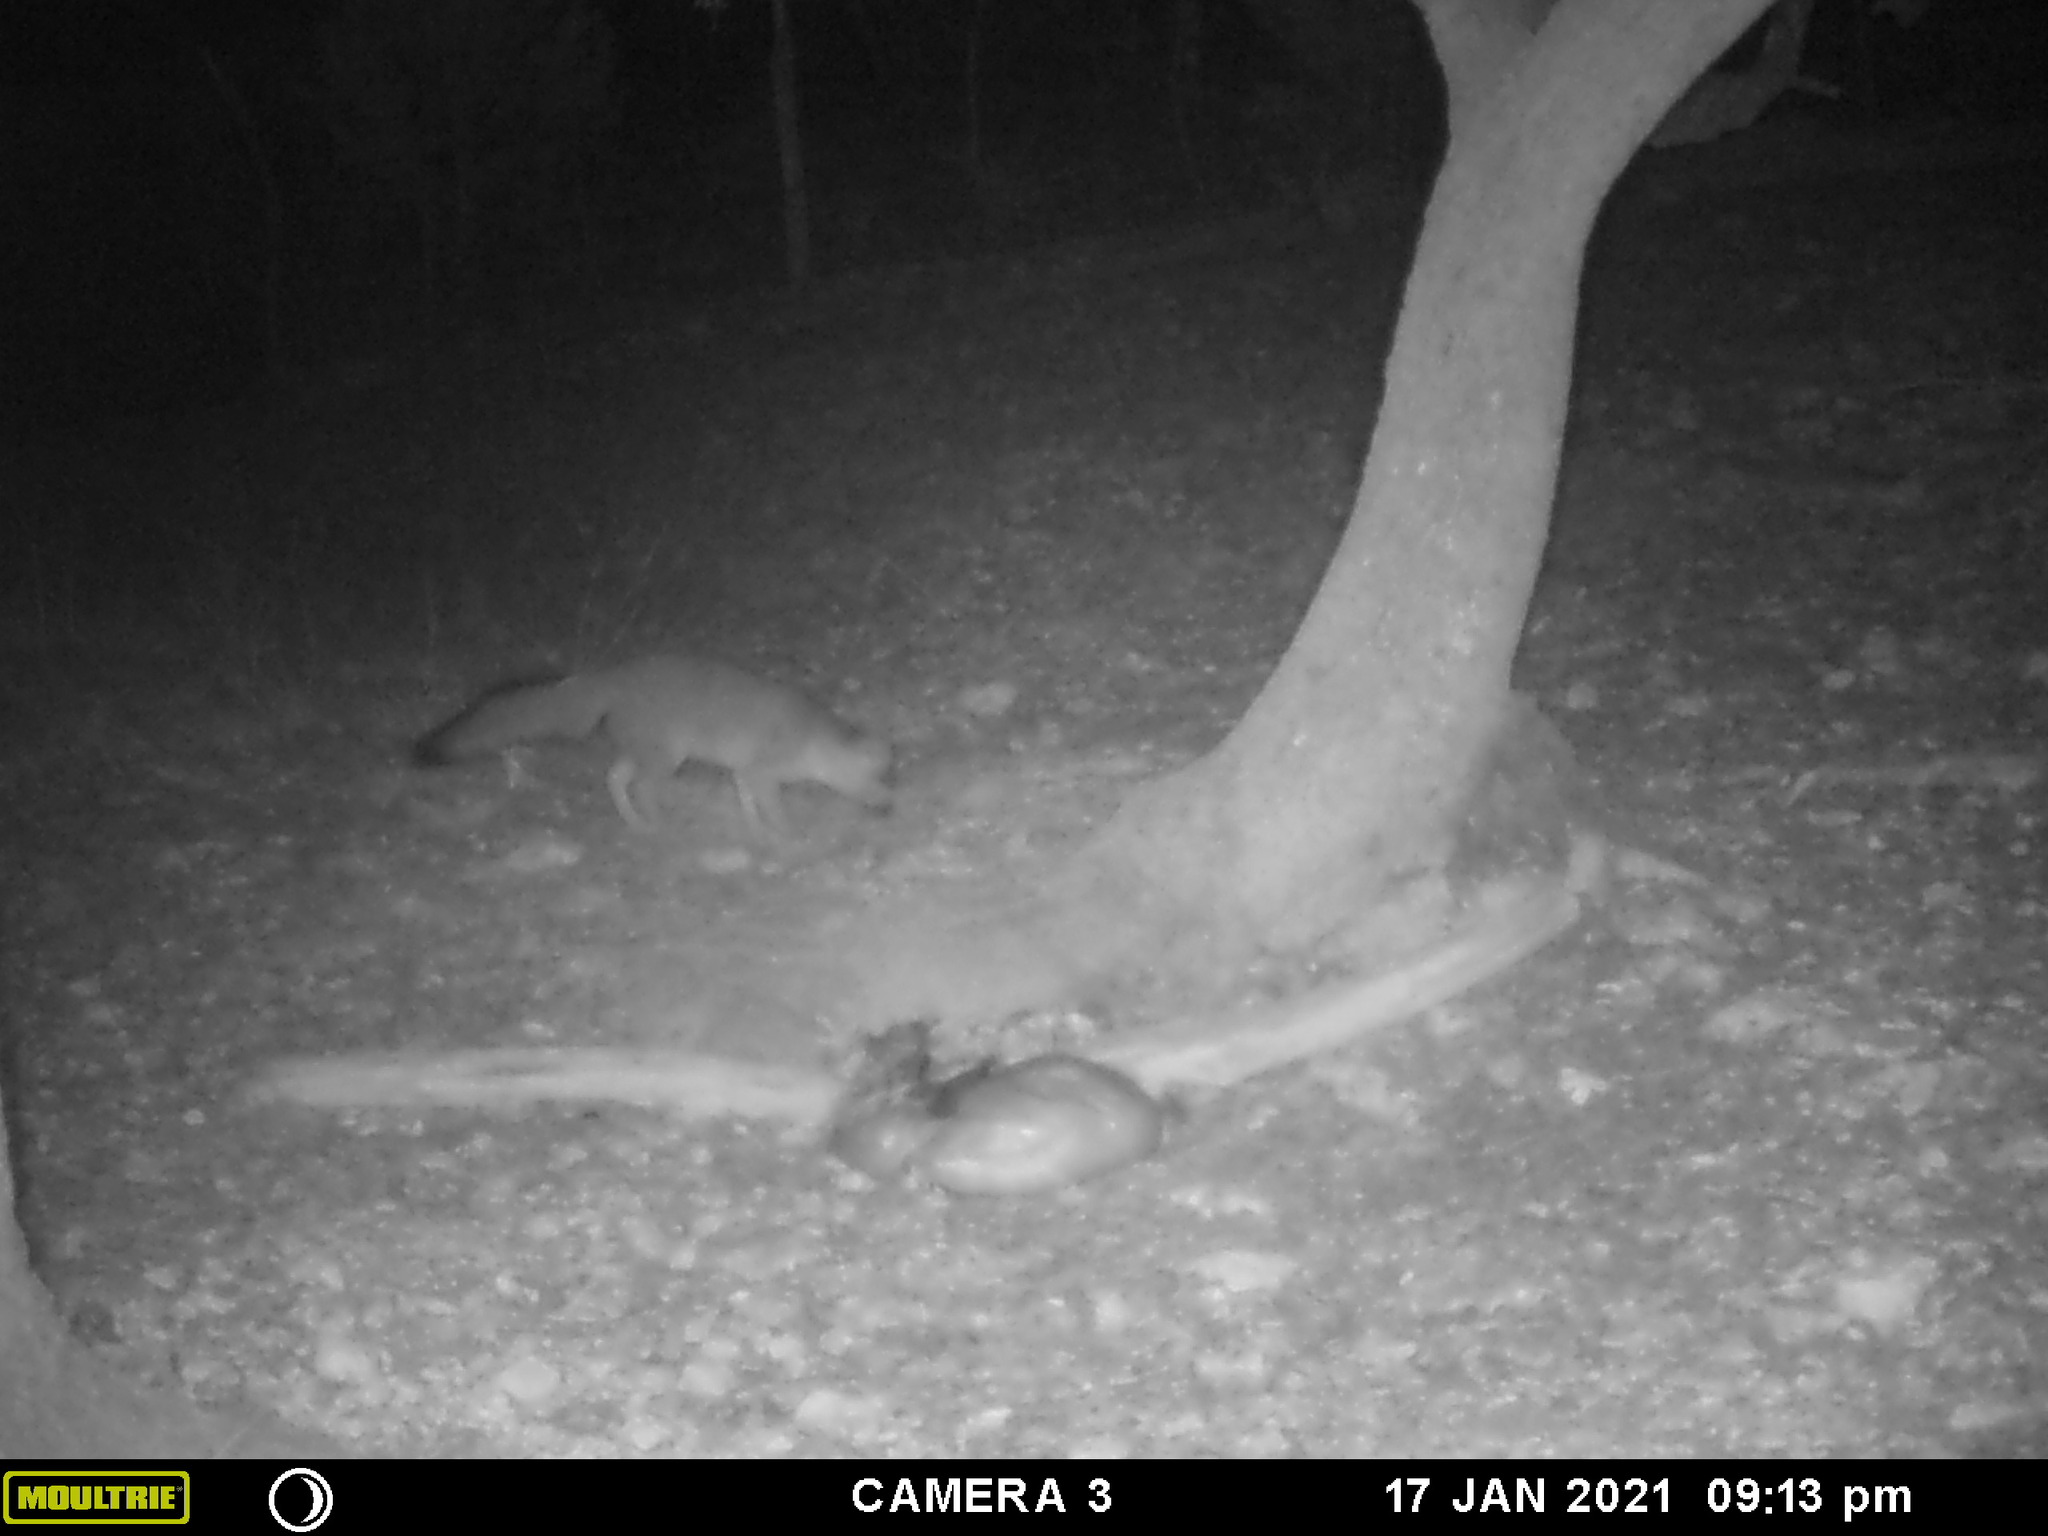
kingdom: Animalia
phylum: Chordata
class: Mammalia
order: Carnivora
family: Canidae
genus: Urocyon
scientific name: Urocyon cinereoargenteus
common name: Gray fox
